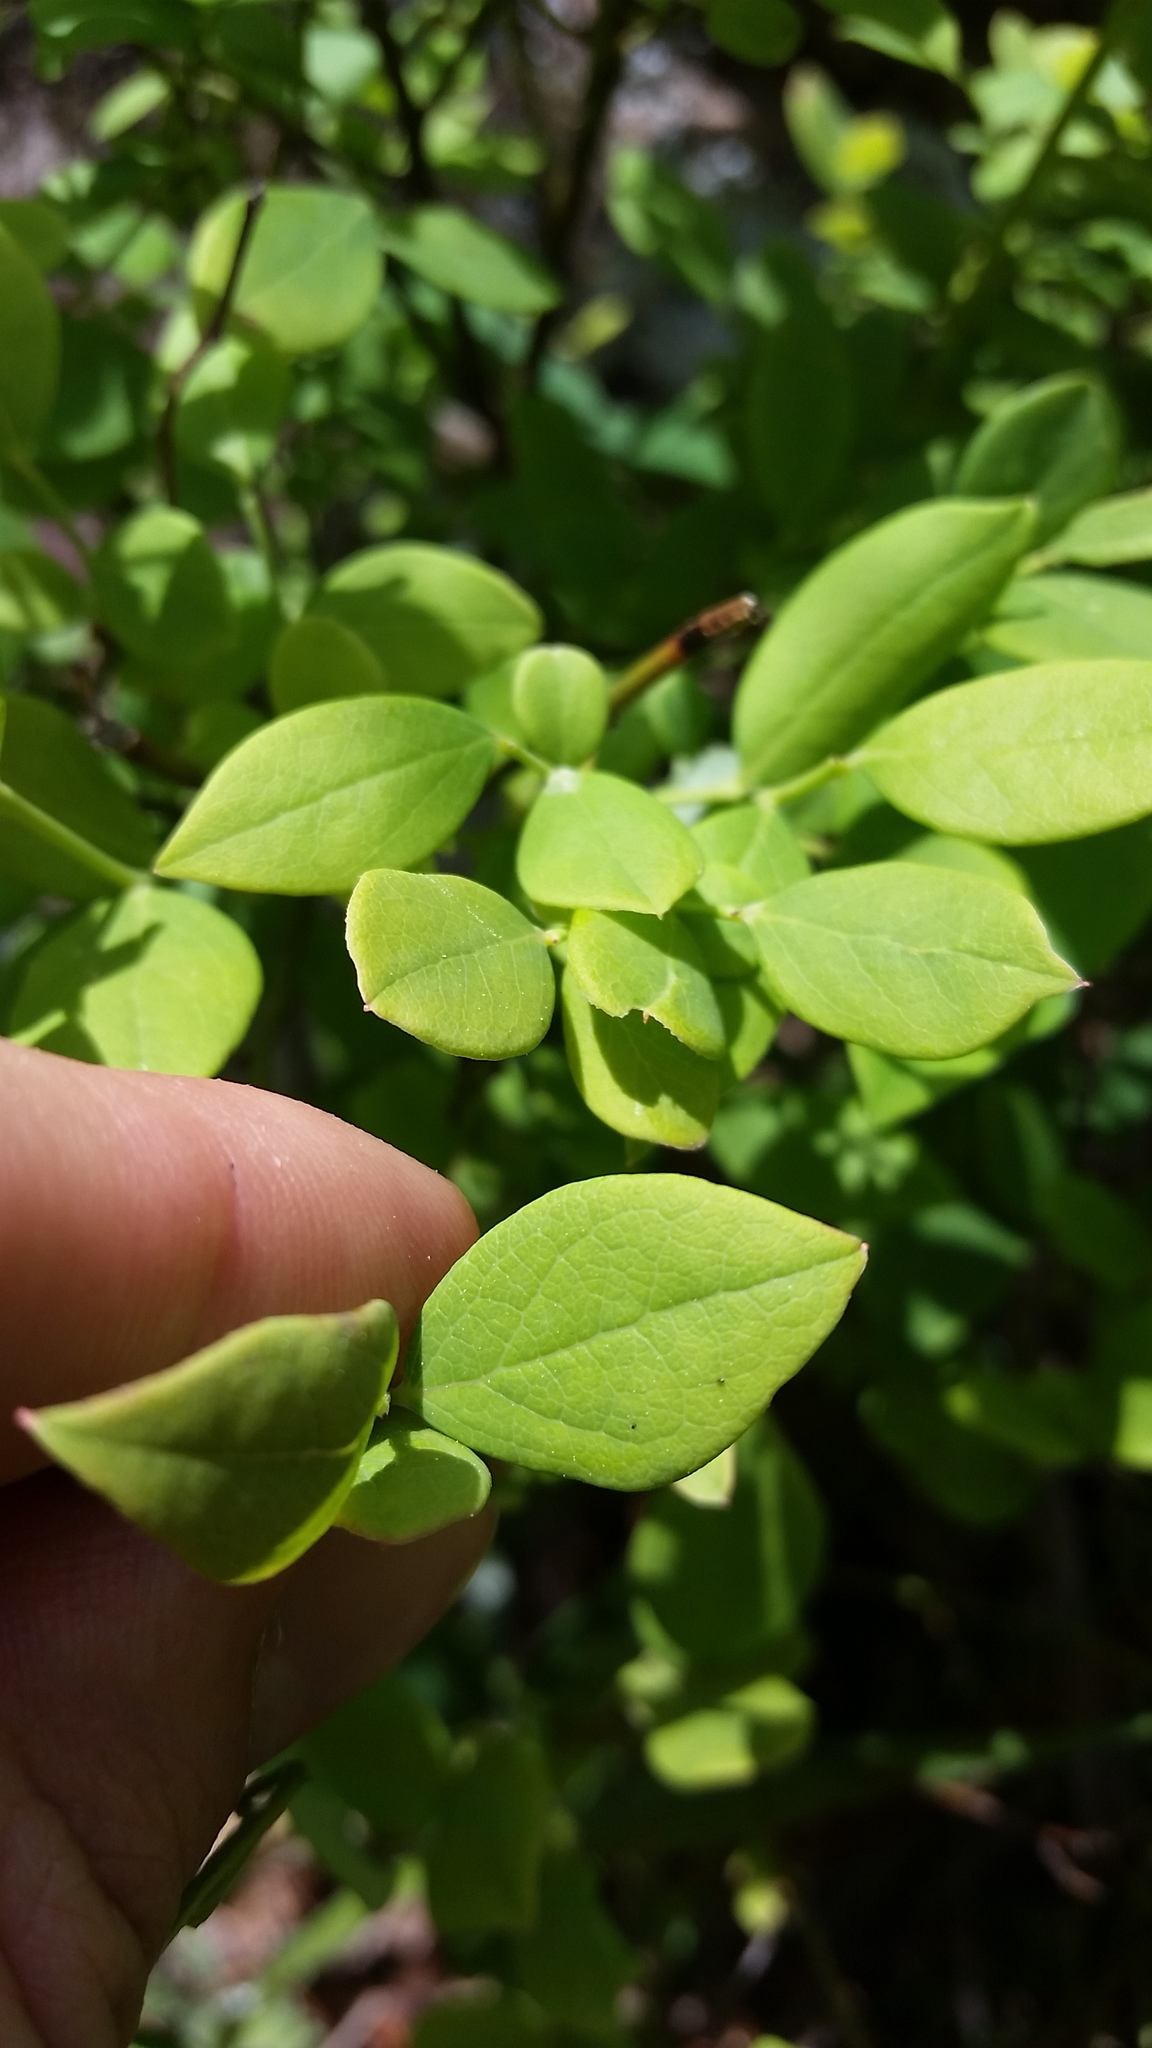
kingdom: Plantae
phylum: Tracheophyta
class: Magnoliopsida
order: Ericales
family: Ericaceae
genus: Vaccinium
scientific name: Vaccinium pallidum
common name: Blue ridge blueberry
